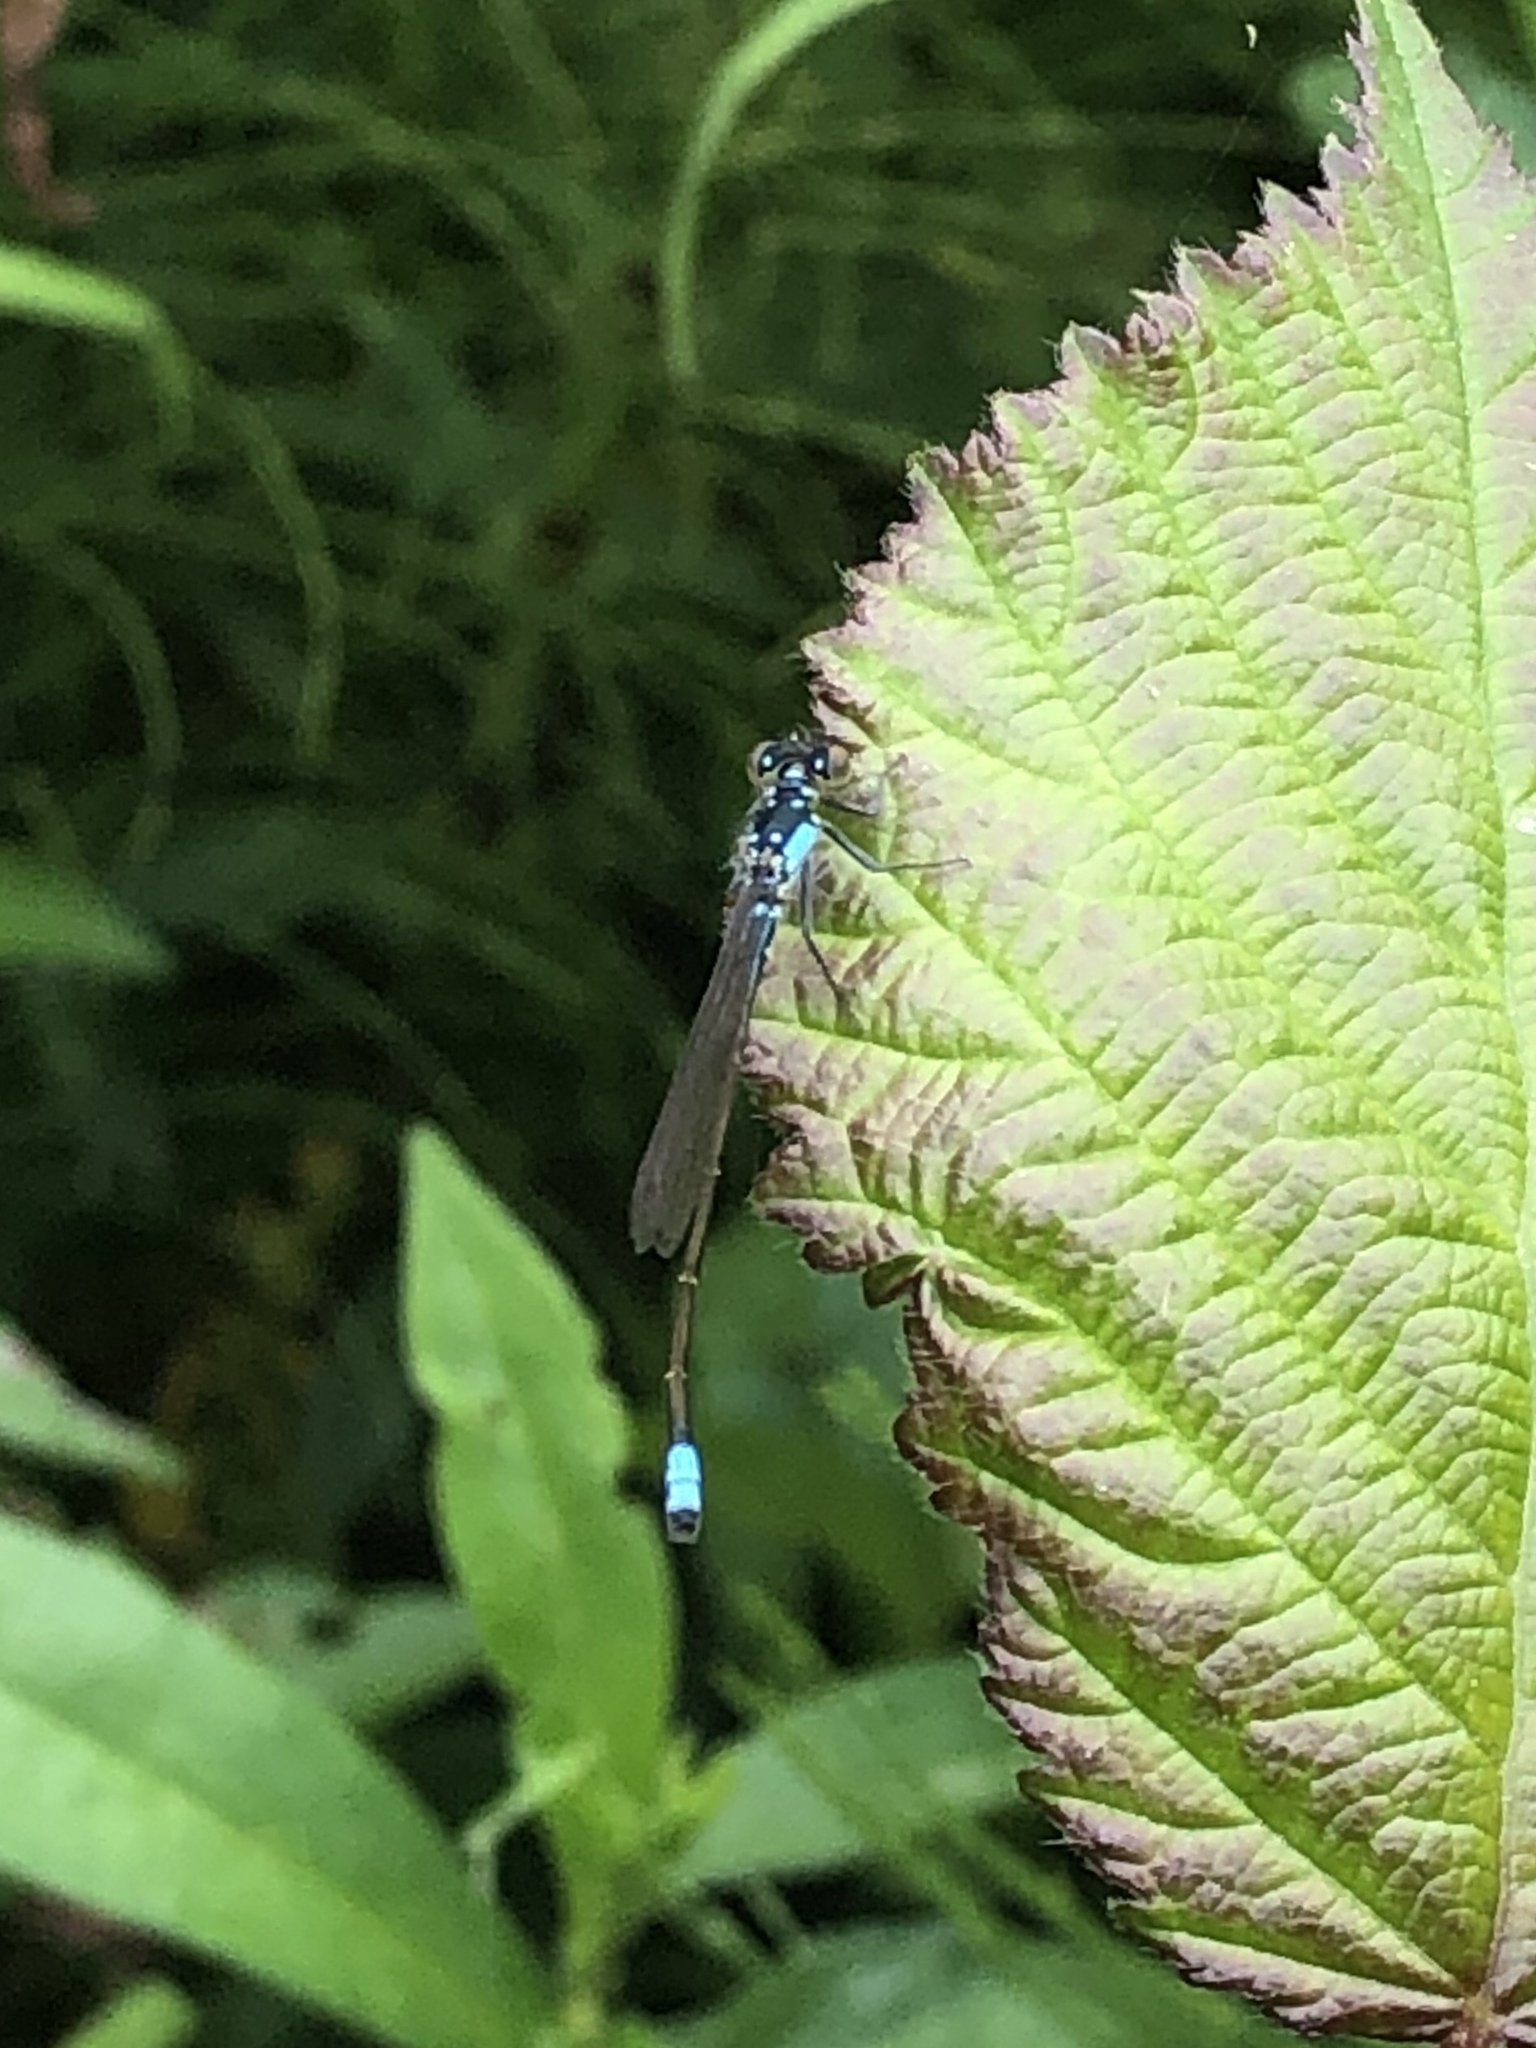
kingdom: Animalia
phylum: Arthropoda
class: Insecta
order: Odonata
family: Coenagrionidae
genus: Ischnura
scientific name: Ischnura cervula
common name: Pacific forktail
